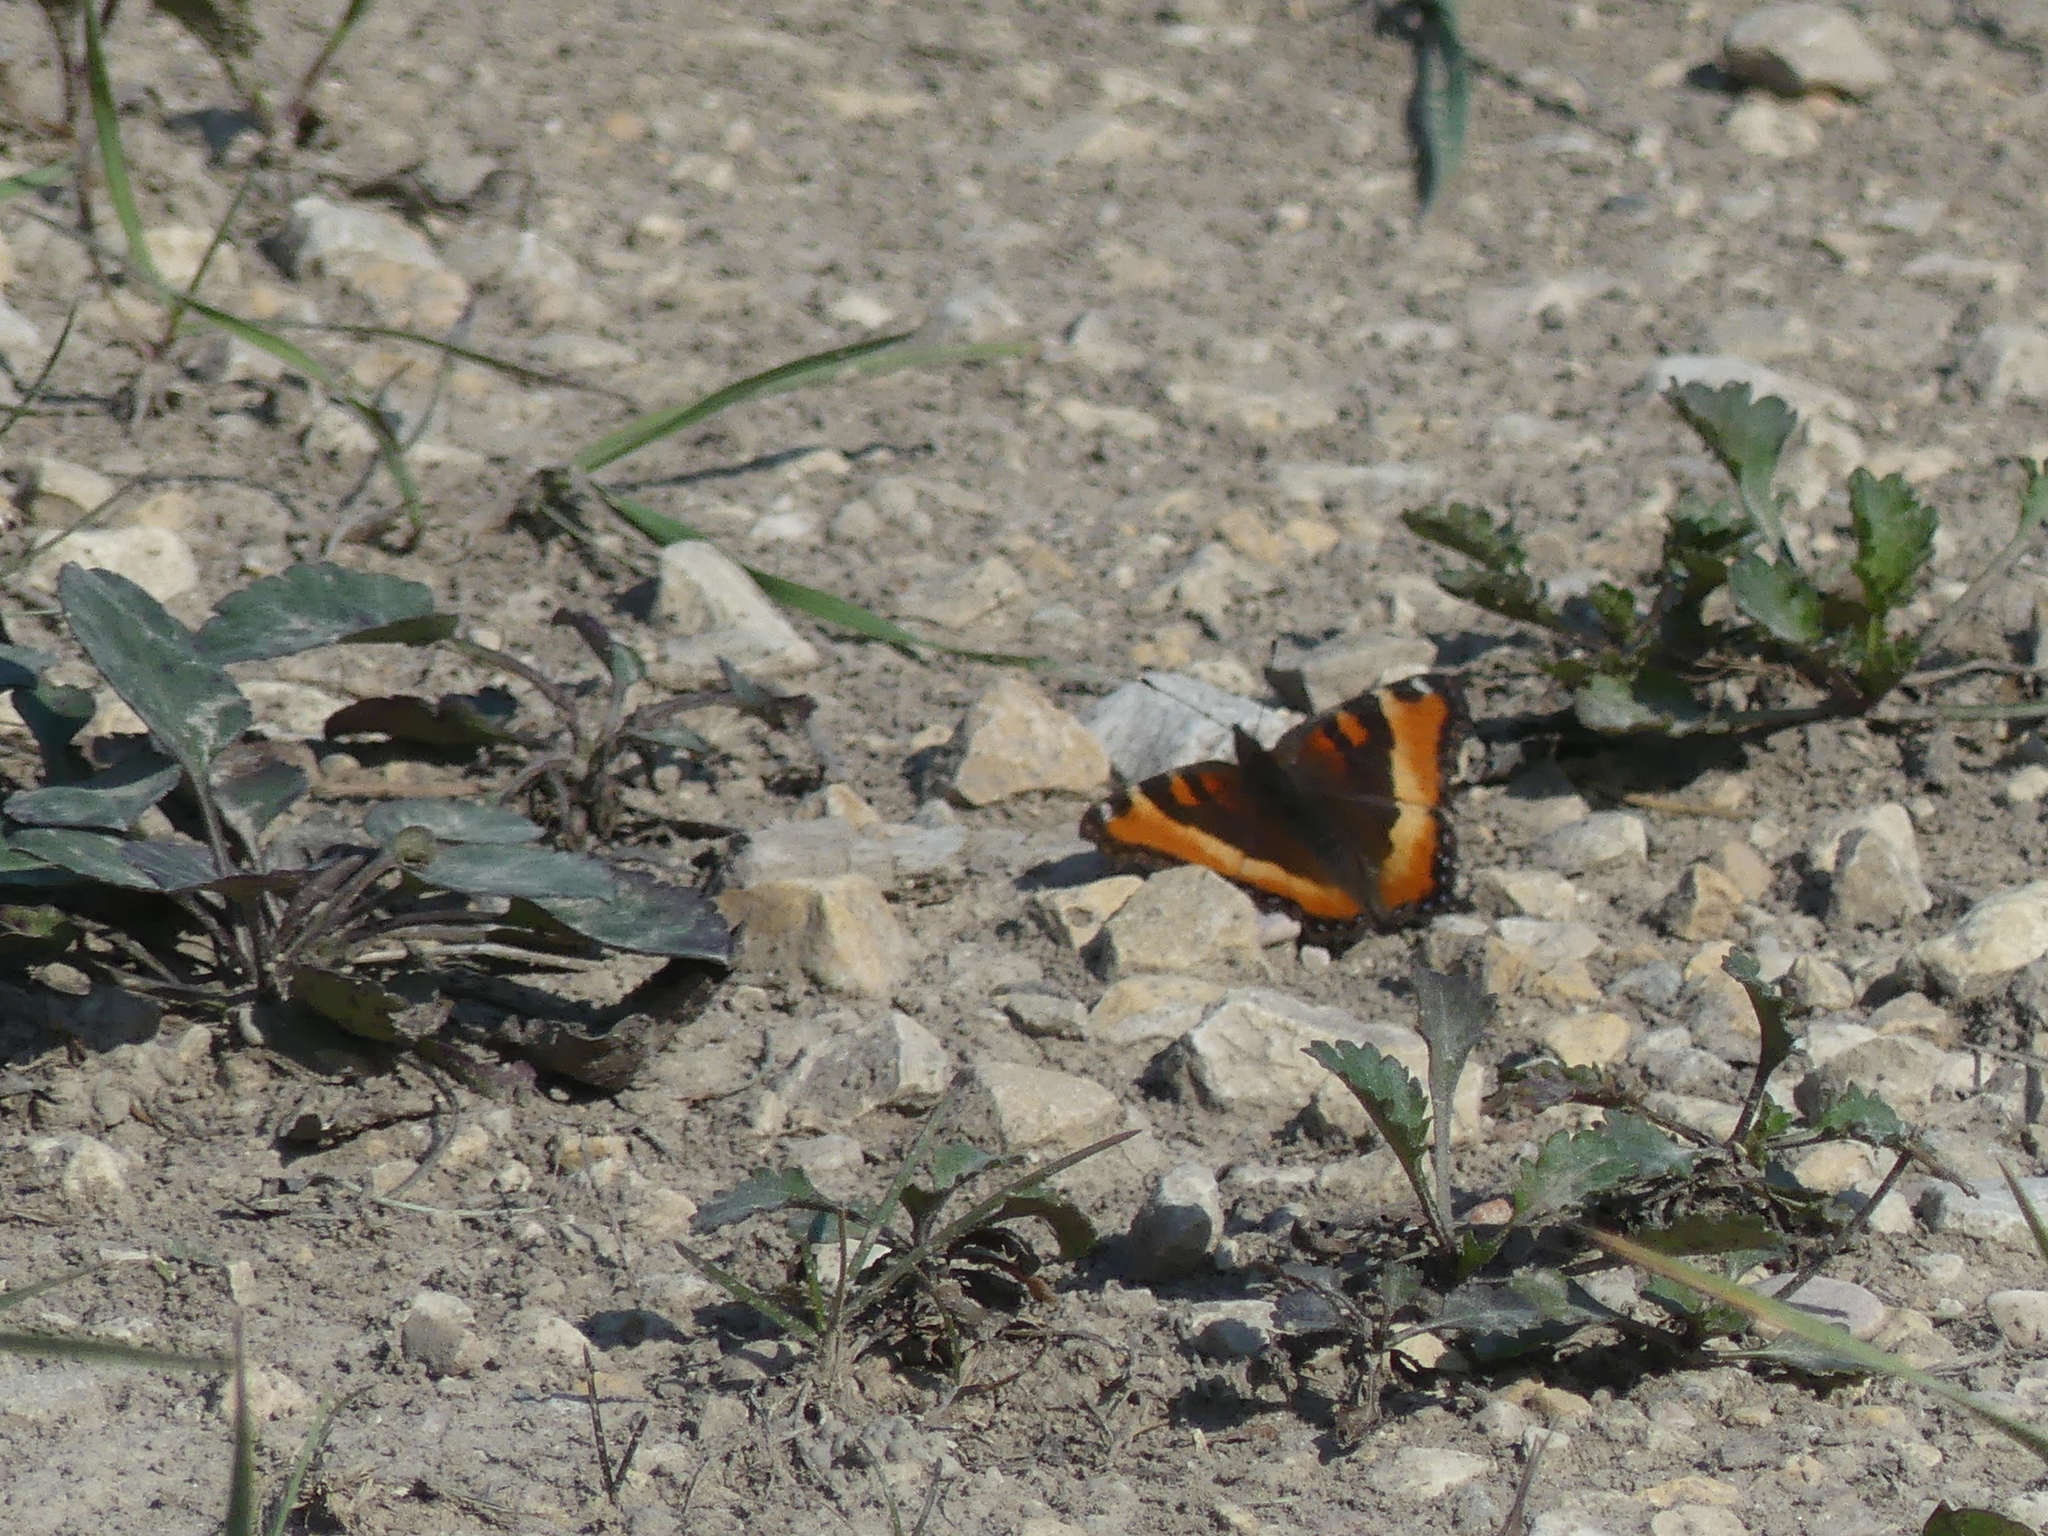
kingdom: Animalia
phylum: Arthropoda
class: Insecta
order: Lepidoptera
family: Nymphalidae
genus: Aglais
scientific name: Aglais milberti
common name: Milbert's tortoiseshell
